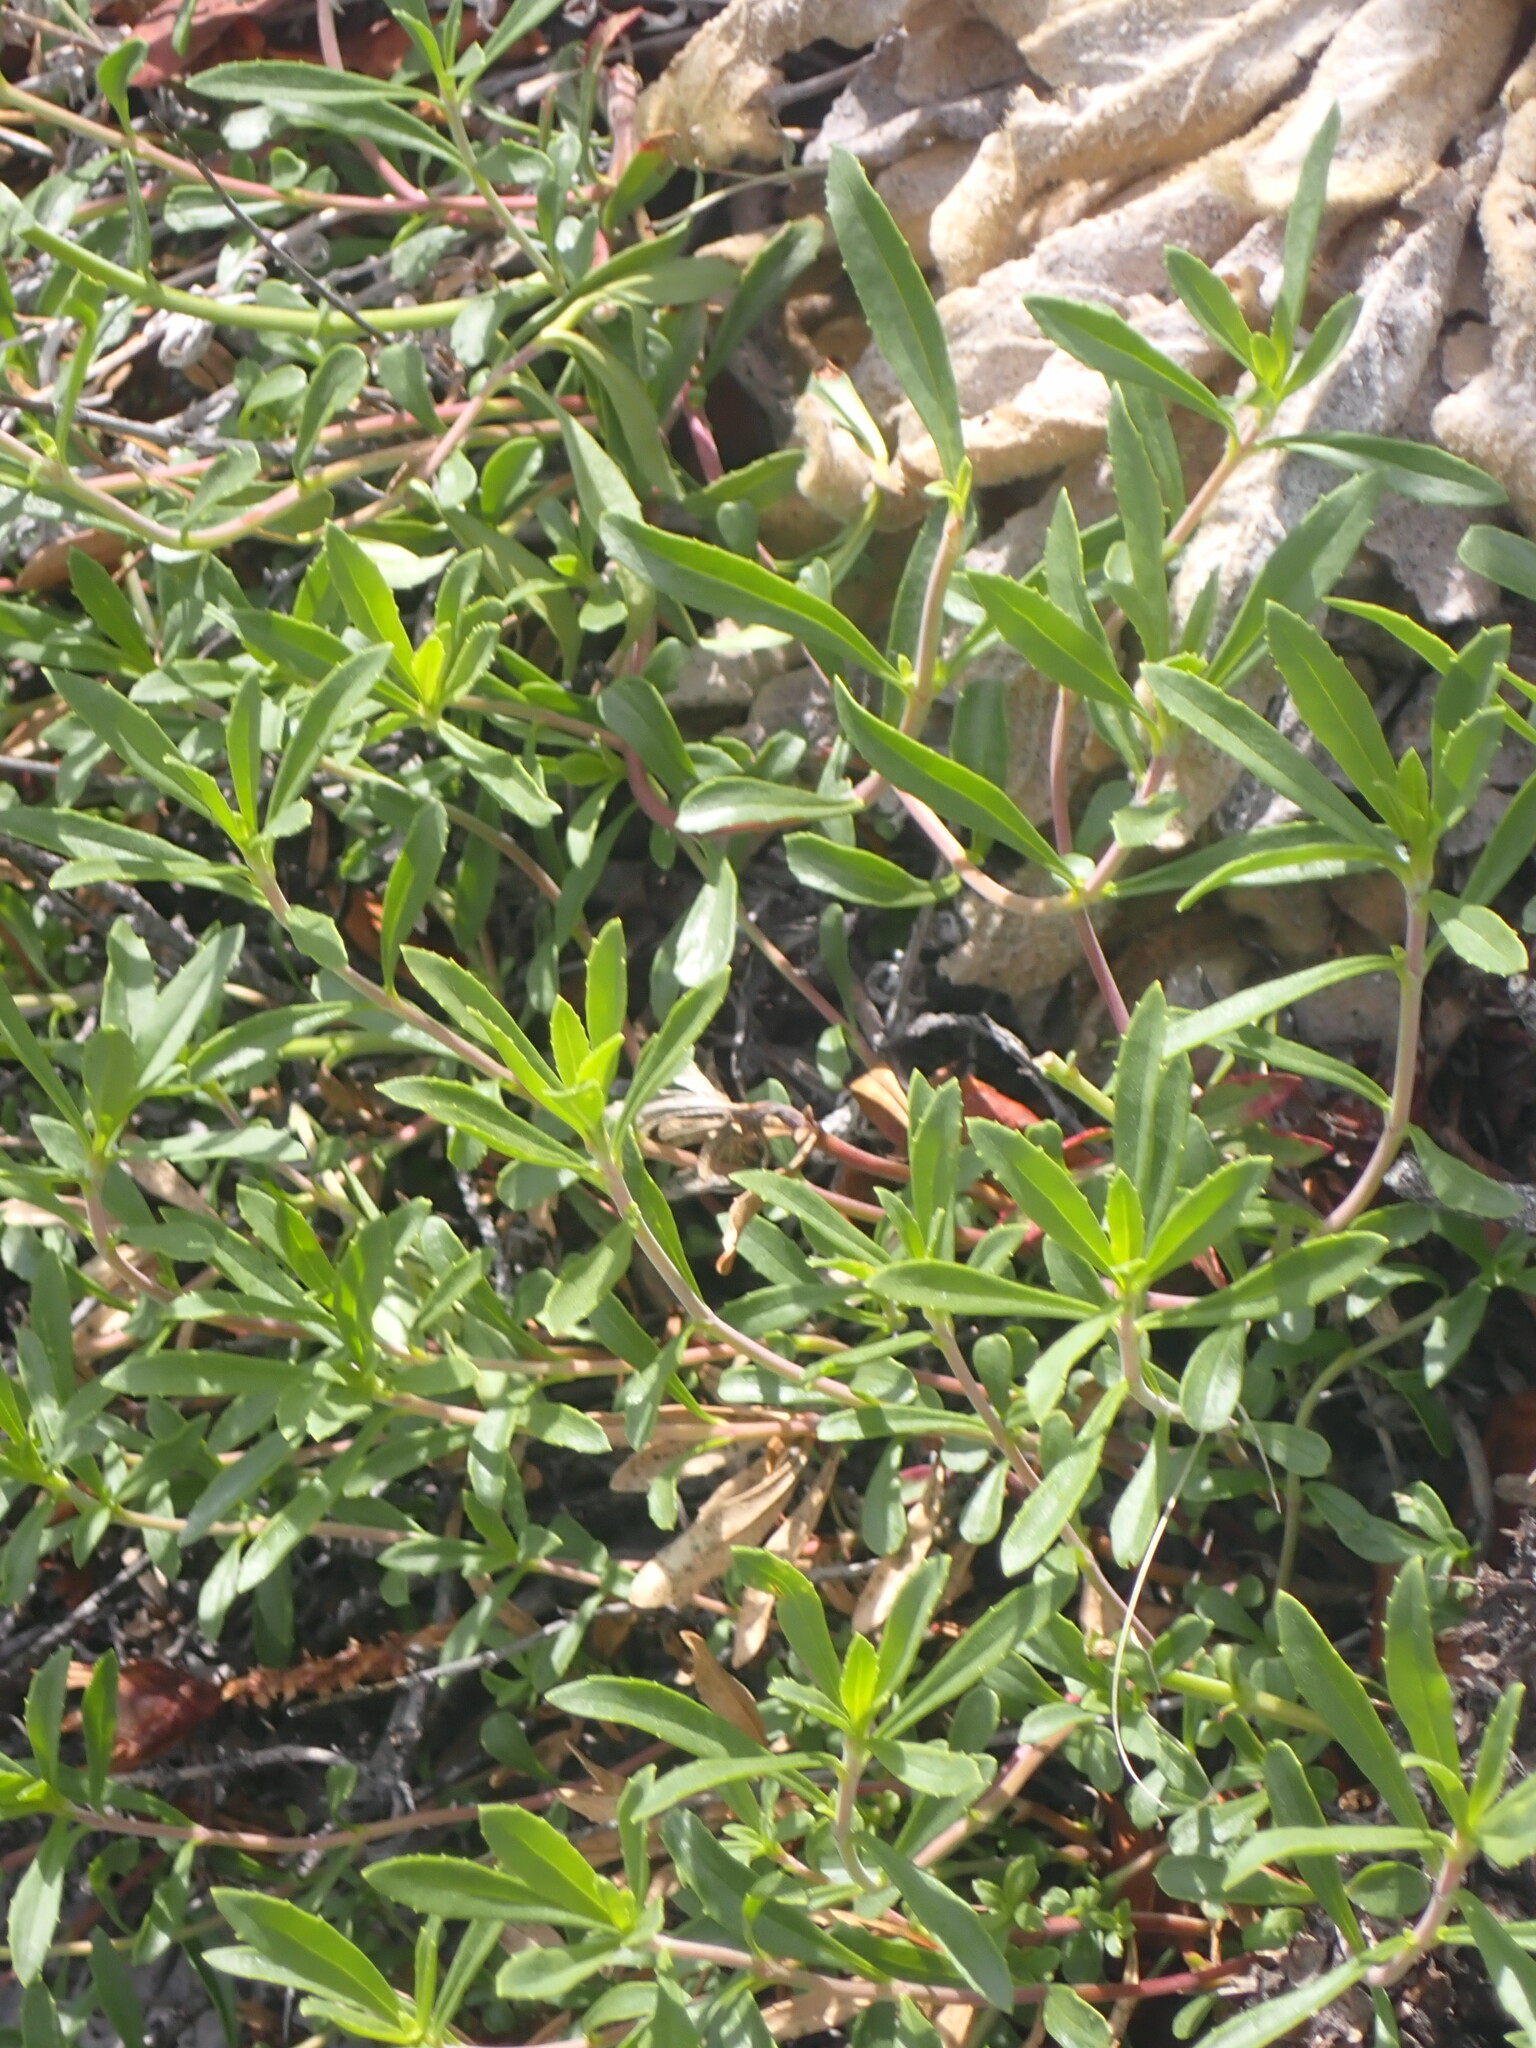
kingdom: Plantae
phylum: Tracheophyta
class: Magnoliopsida
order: Lamiales
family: Plantaginaceae
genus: Penstemon
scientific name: Penstemon fruticosus
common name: Bush penstemon
